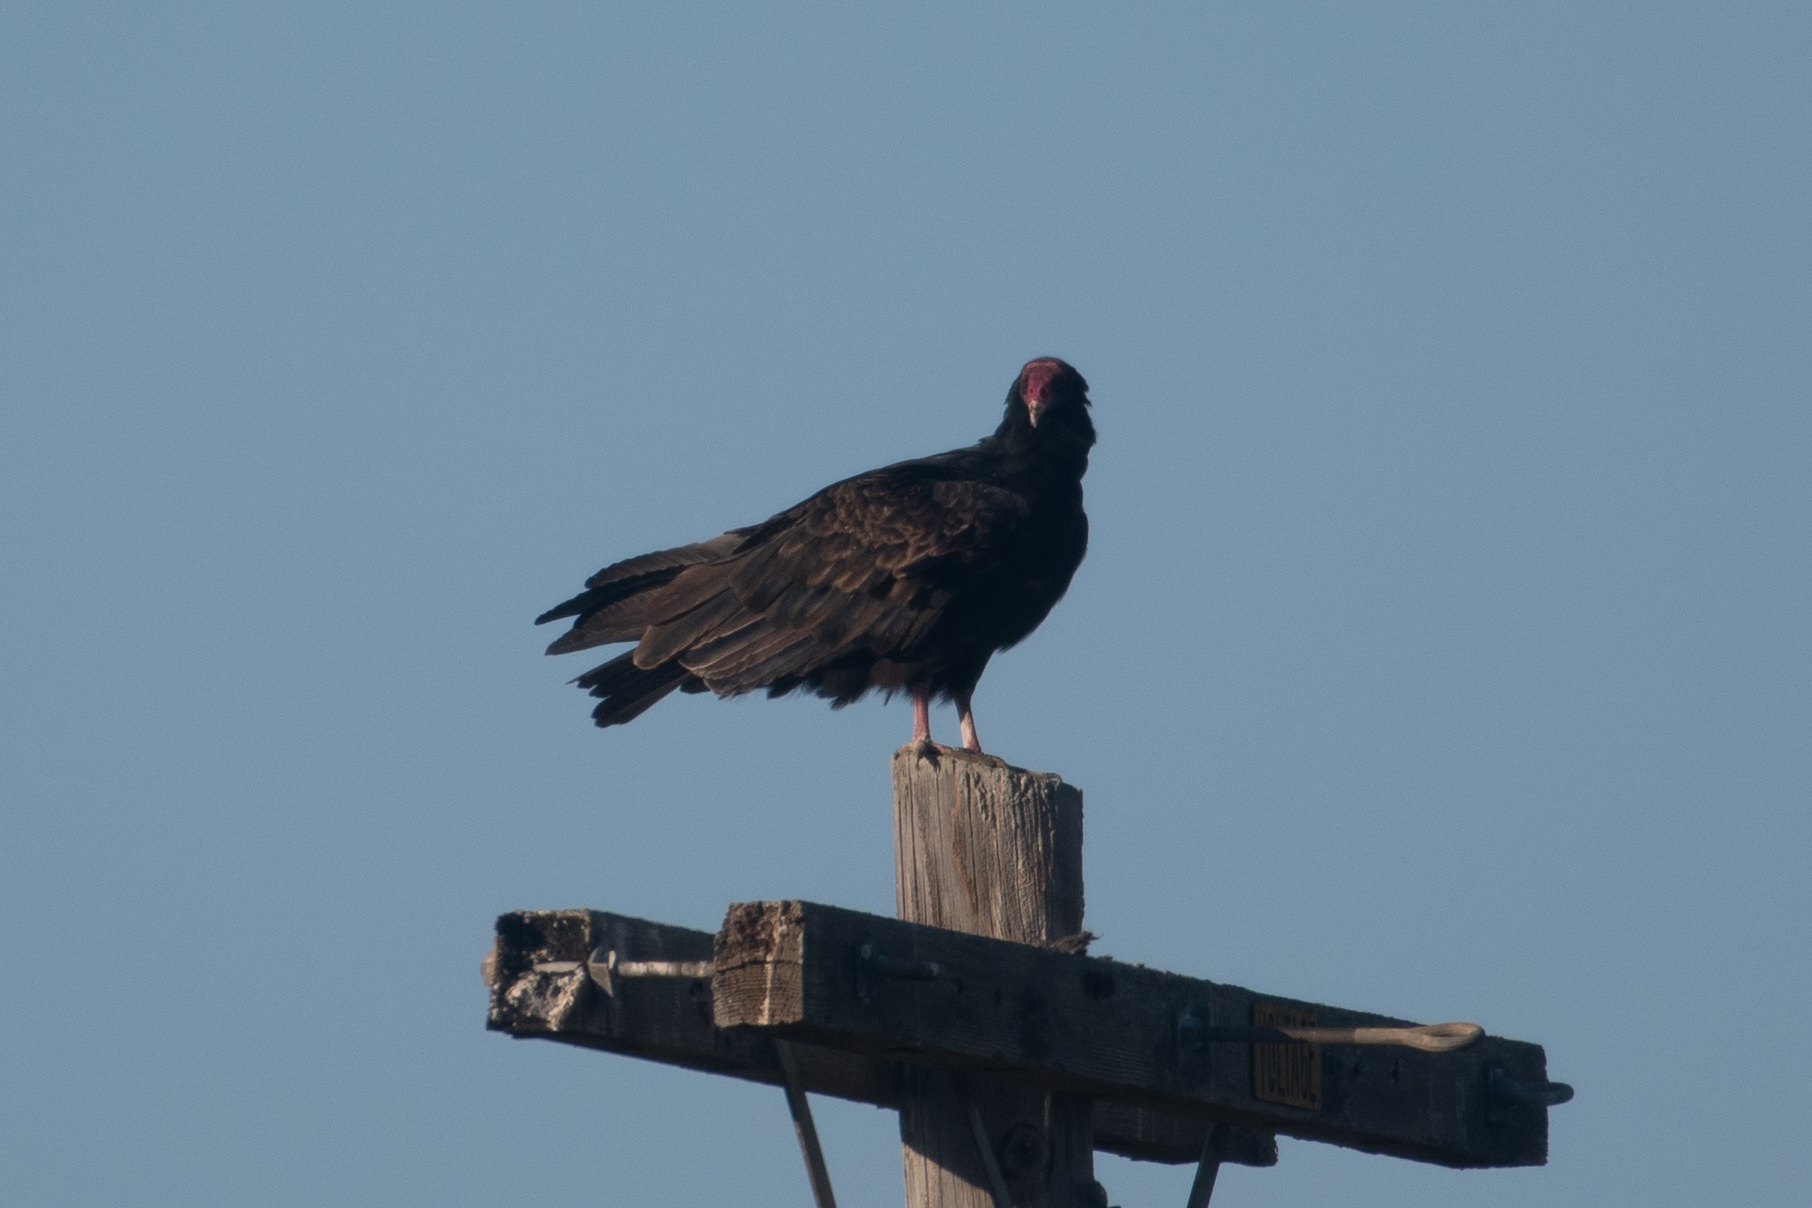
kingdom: Animalia
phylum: Chordata
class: Aves
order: Accipitriformes
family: Cathartidae
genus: Cathartes
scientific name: Cathartes aura
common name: Turkey vulture
